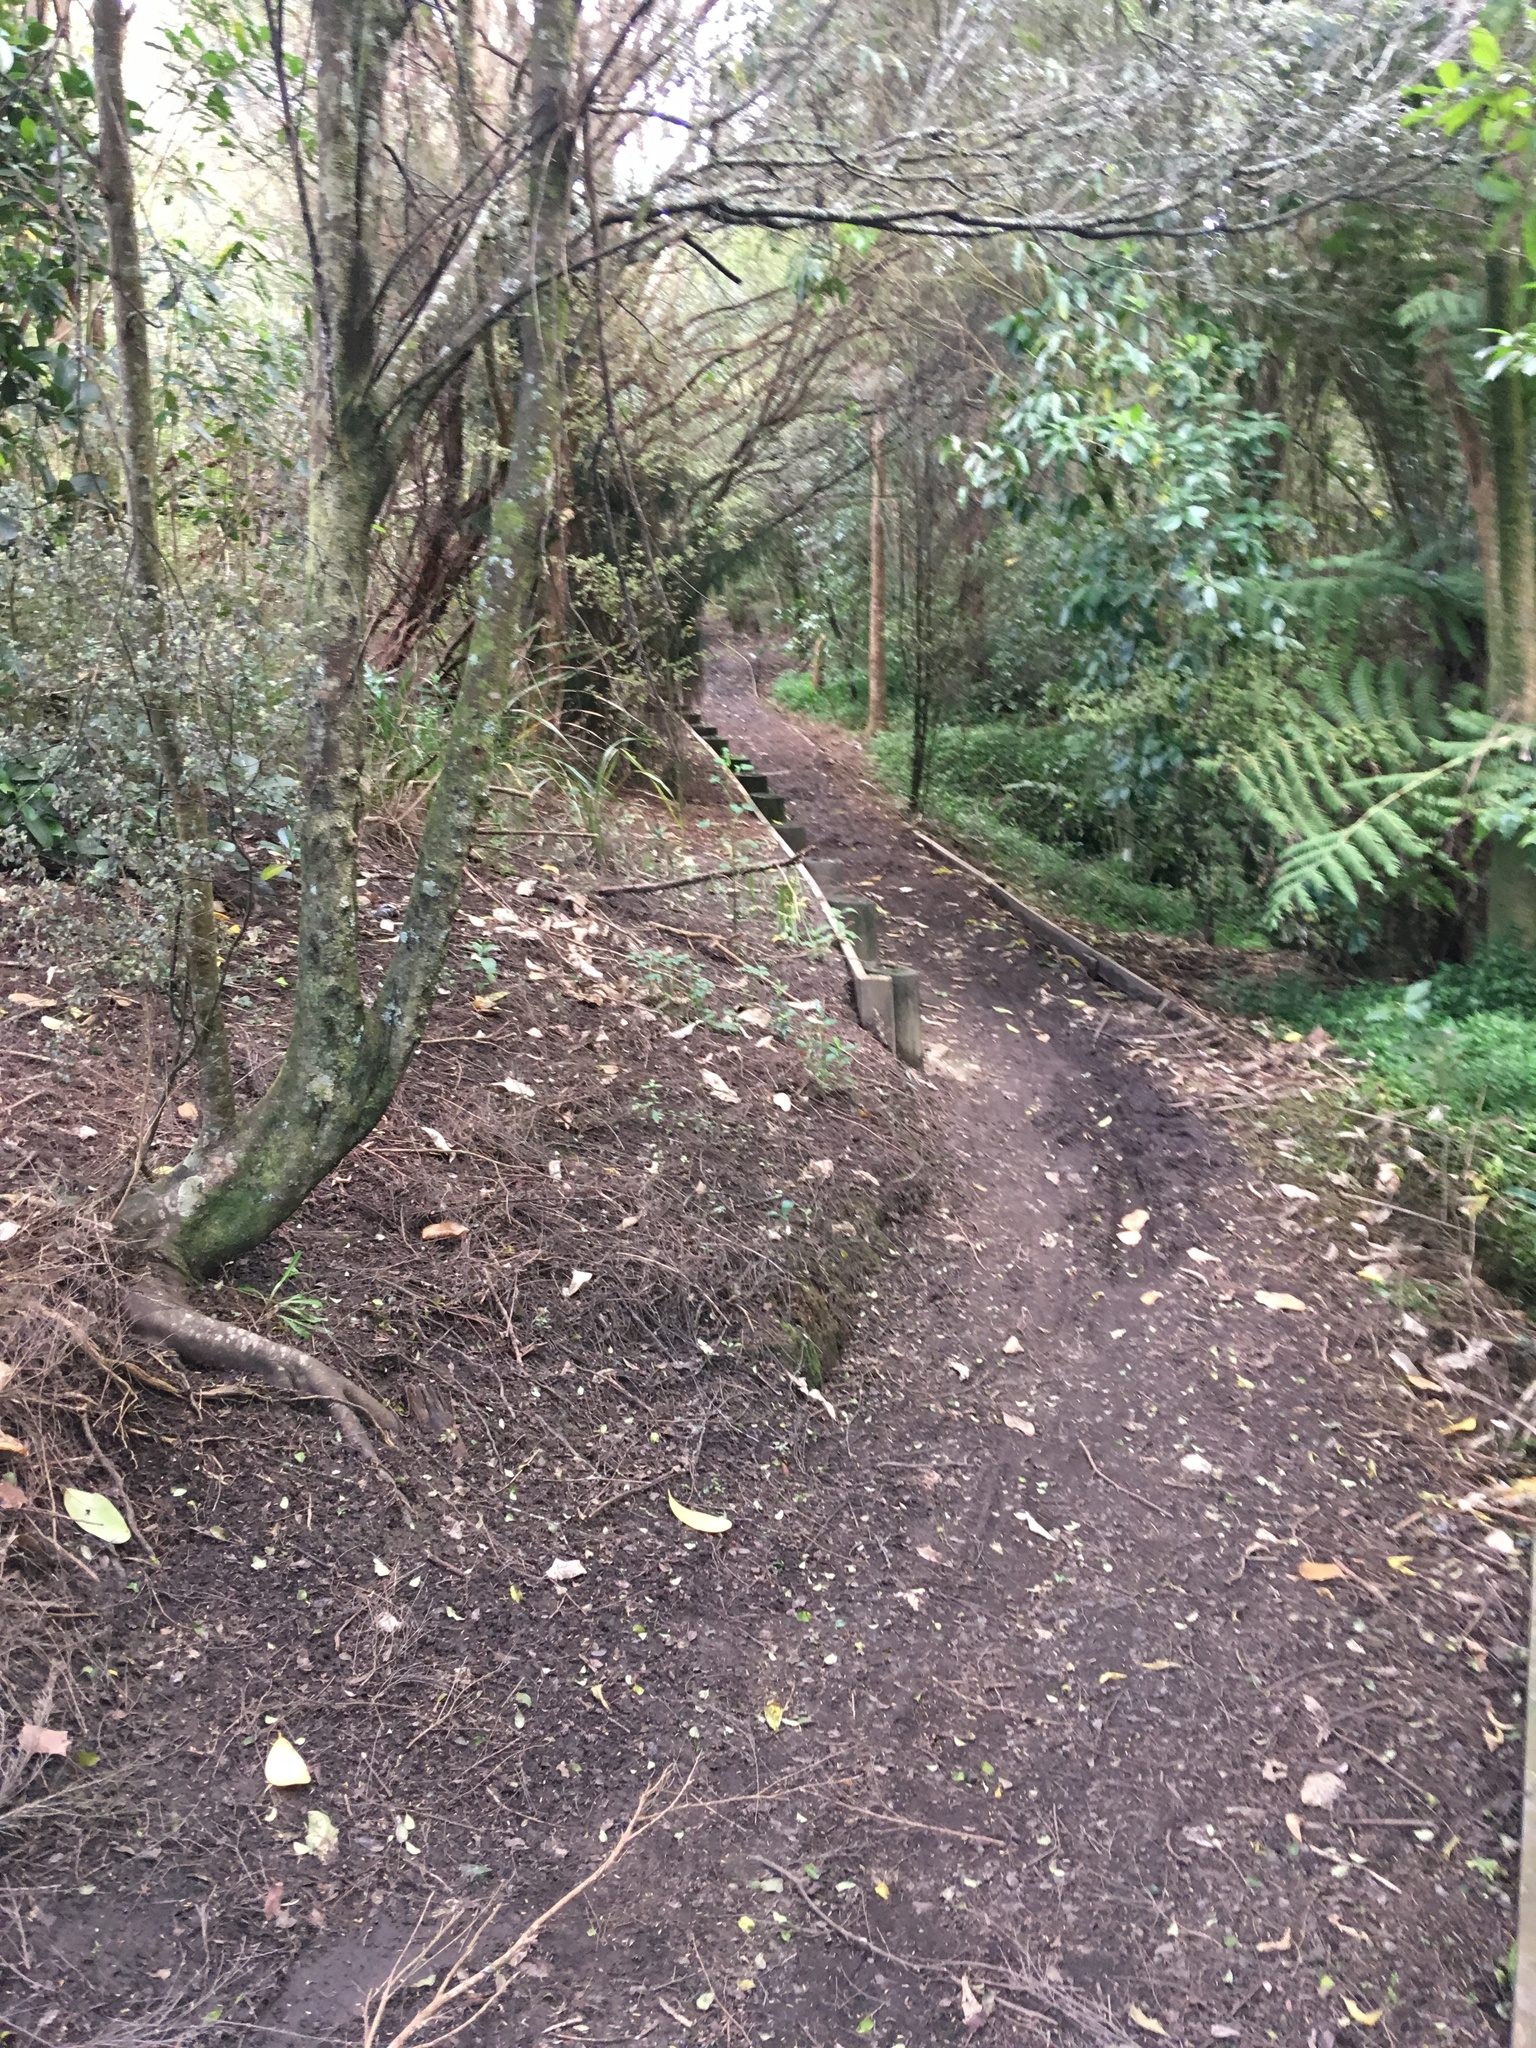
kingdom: Plantae
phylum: Tracheophyta
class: Magnoliopsida
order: Apiales
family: Pittosporaceae
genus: Pittosporum
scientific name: Pittosporum tenuifolium
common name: Kohuhu
